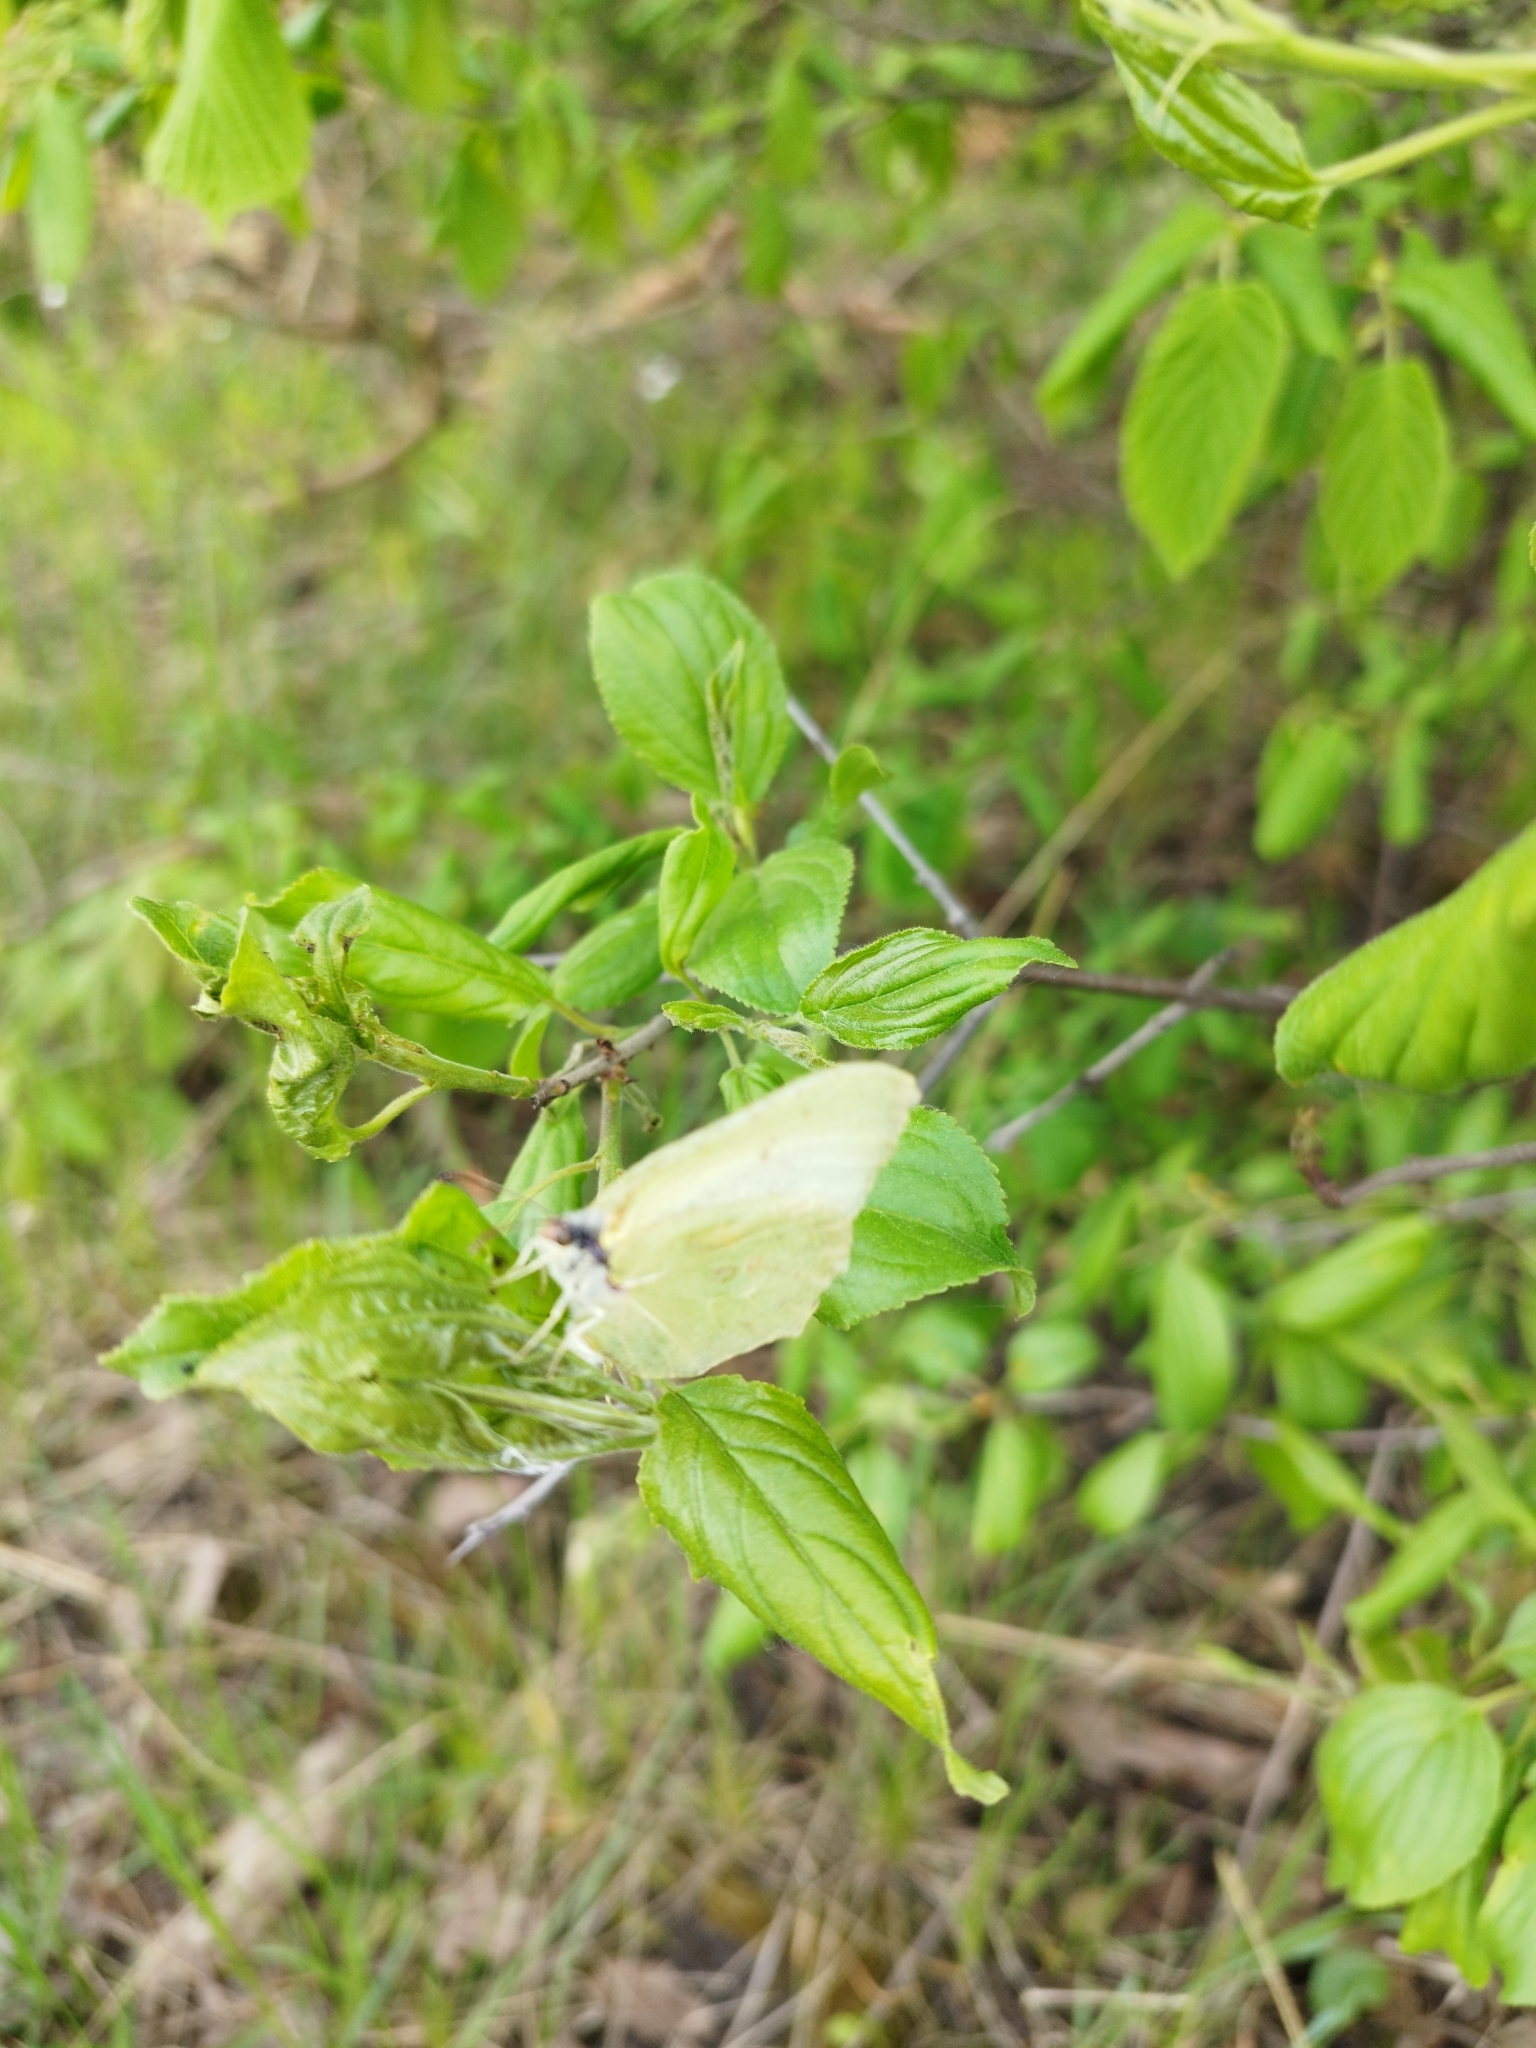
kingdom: Animalia
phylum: Arthropoda
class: Insecta
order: Lepidoptera
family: Pieridae
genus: Gonepteryx
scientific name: Gonepteryx rhamni
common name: Brimstone
